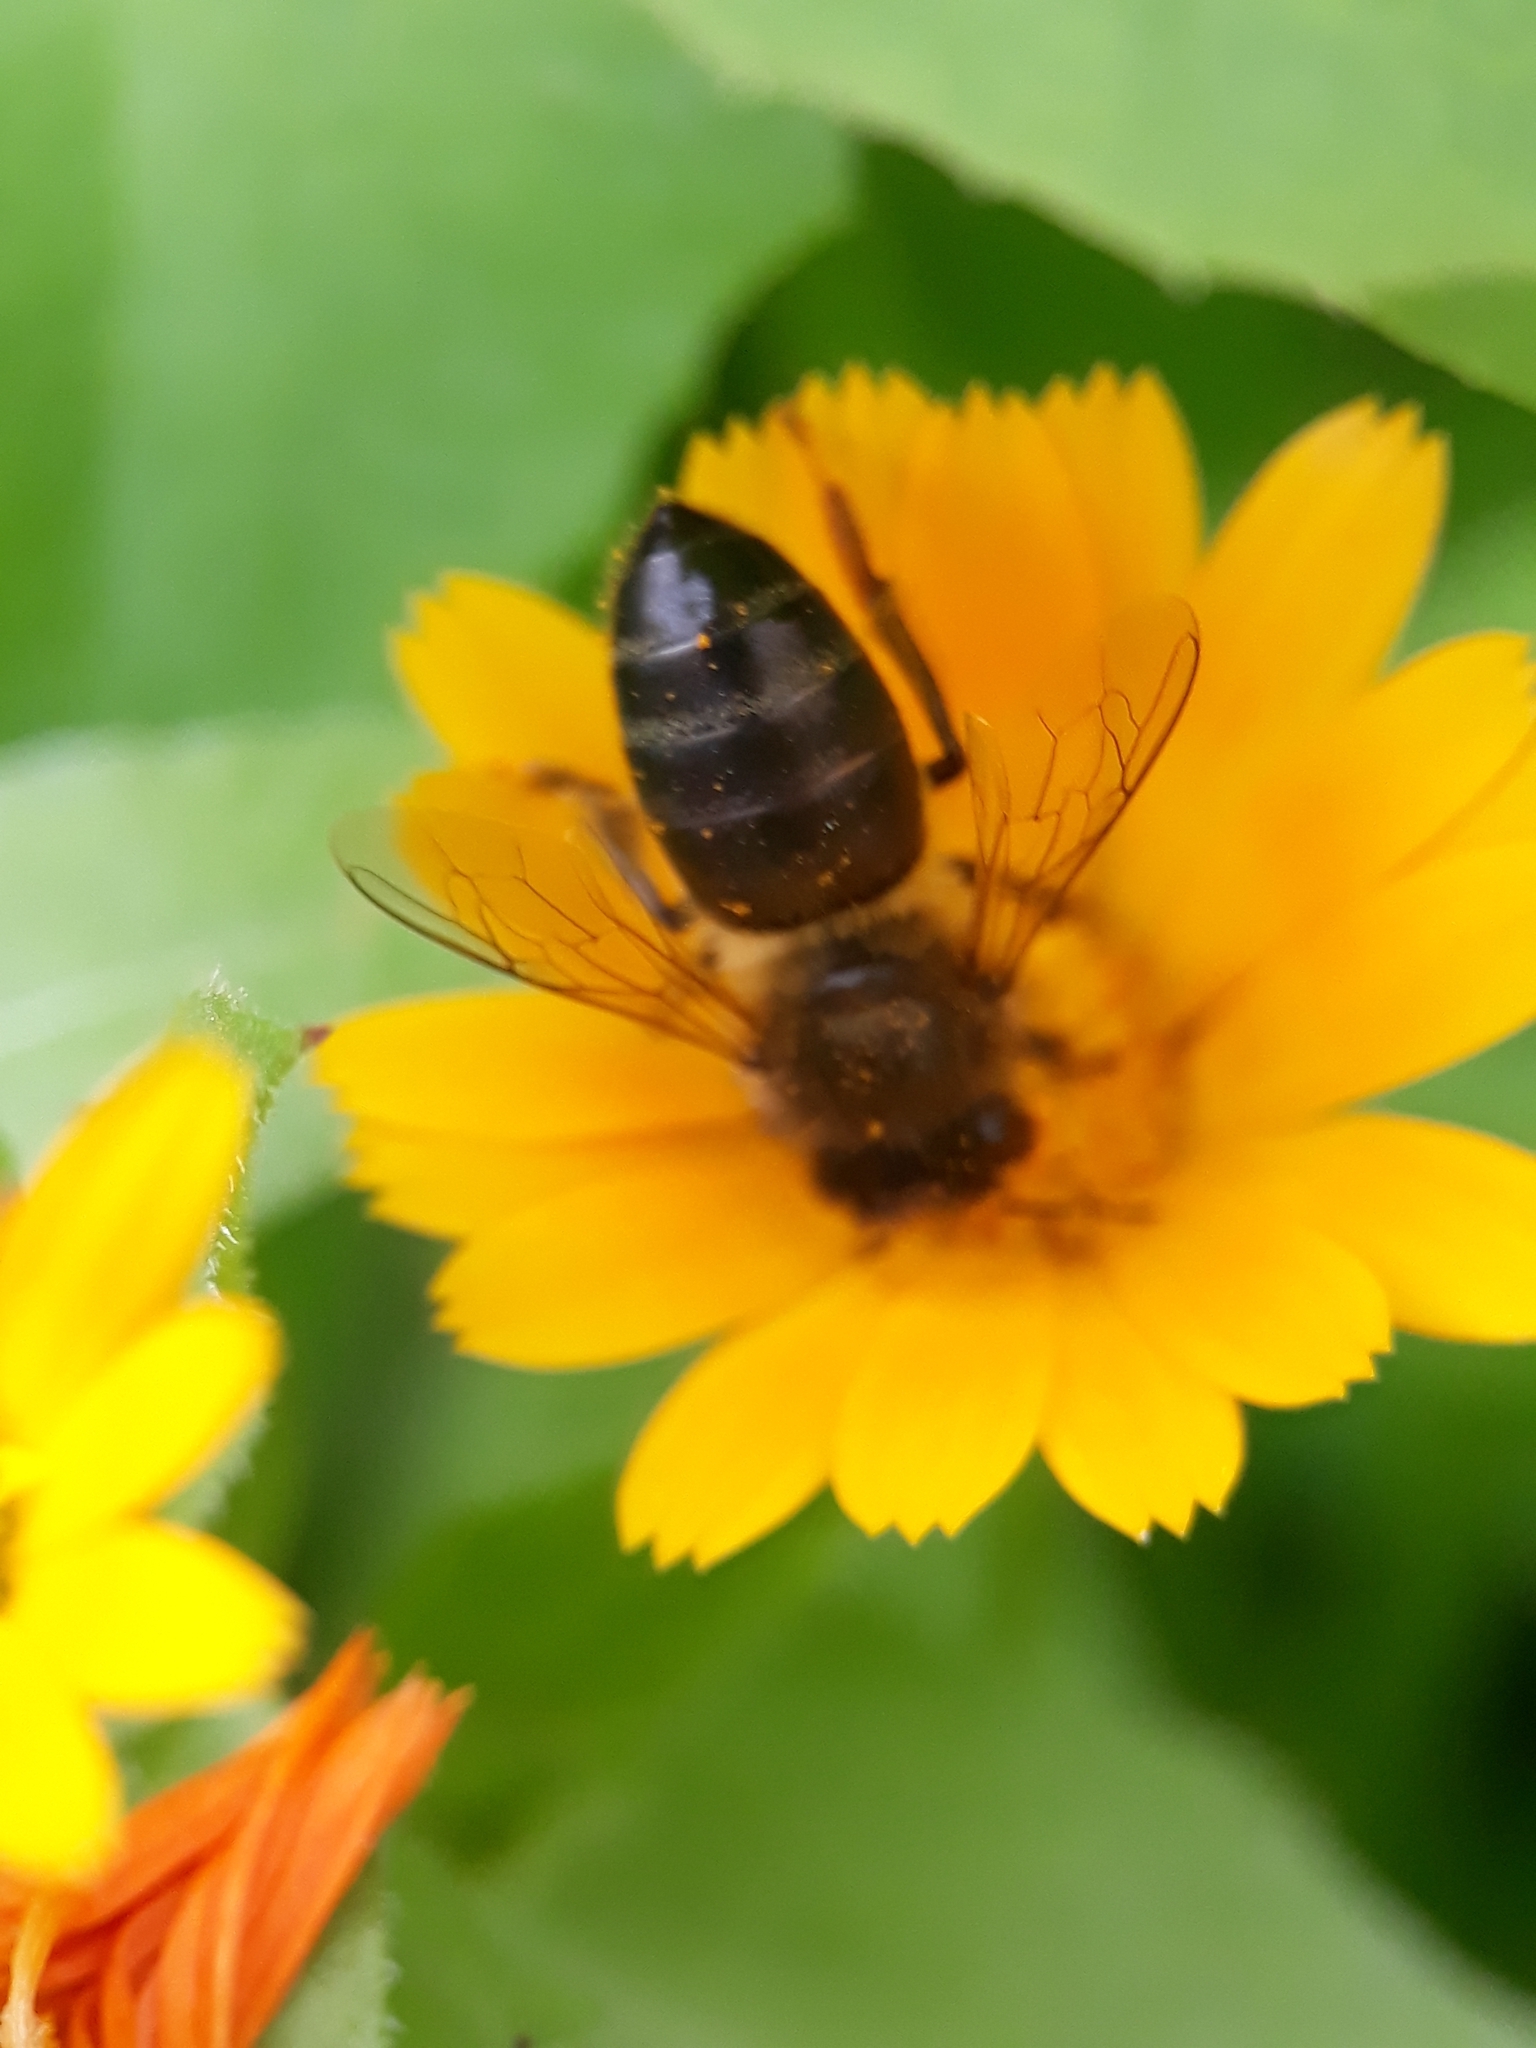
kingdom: Animalia
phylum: Arthropoda
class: Insecta
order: Hymenoptera
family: Apidae
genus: Apis
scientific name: Apis mellifera
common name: Honey bee
